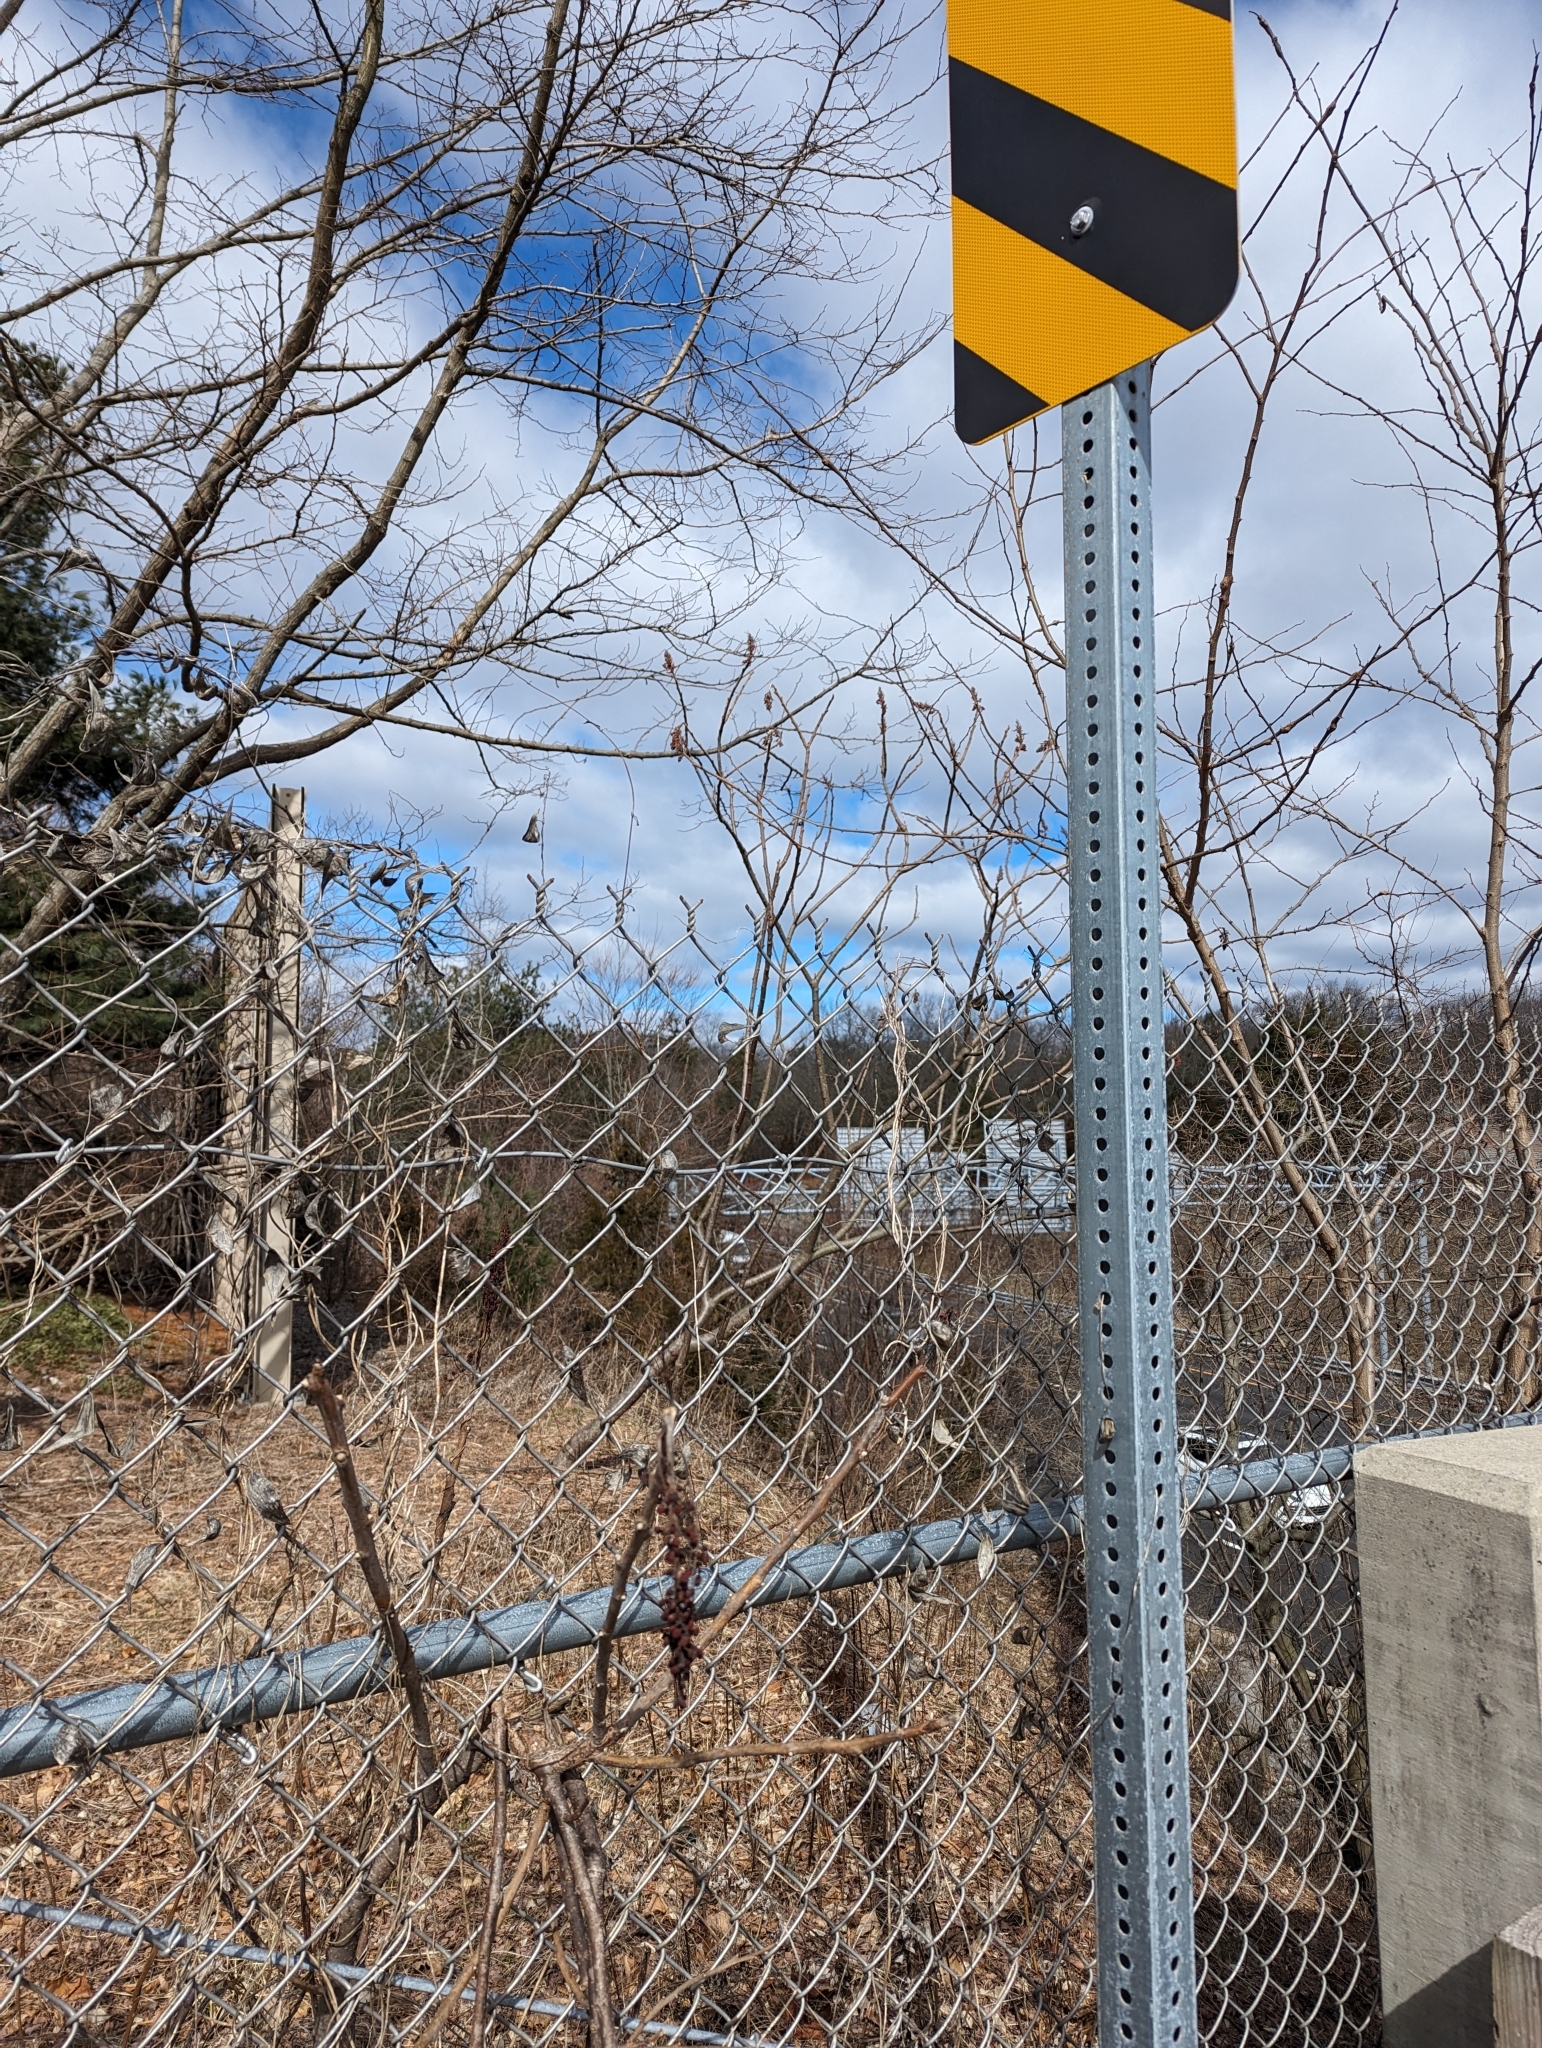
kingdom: Plantae
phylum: Tracheophyta
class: Magnoliopsida
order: Sapindales
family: Anacardiaceae
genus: Rhus
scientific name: Rhus glabra
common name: Scarlet sumac
